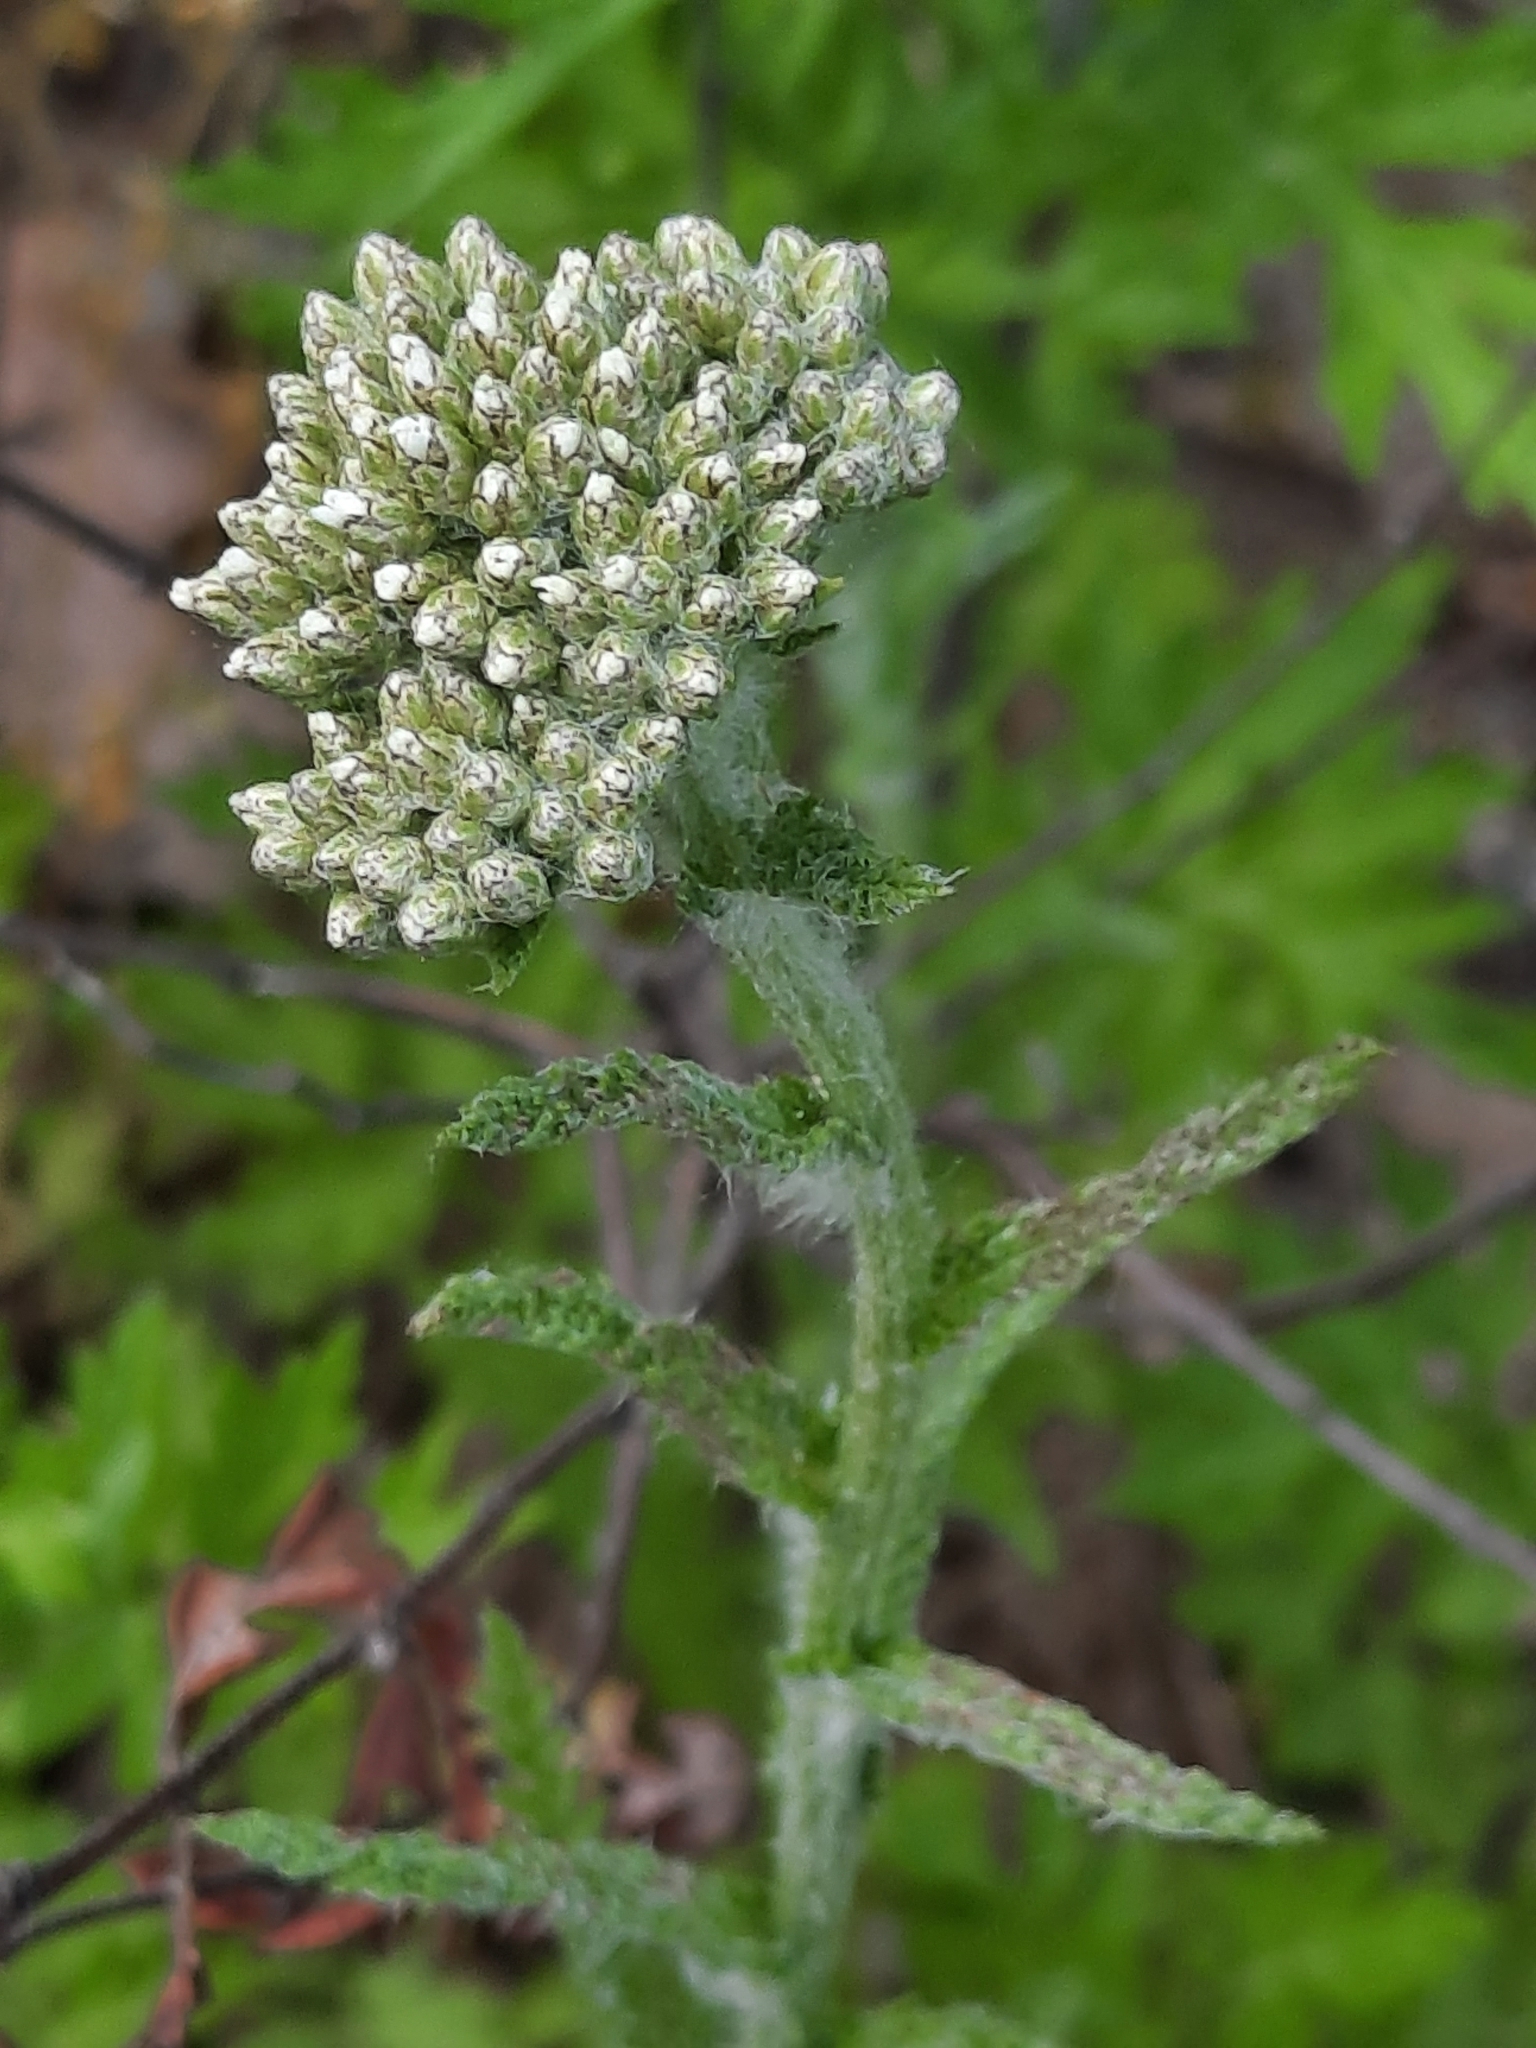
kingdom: Plantae
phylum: Tracheophyta
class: Magnoliopsida
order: Asterales
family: Asteraceae
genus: Achillea
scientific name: Achillea millefolium
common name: Yarrow
